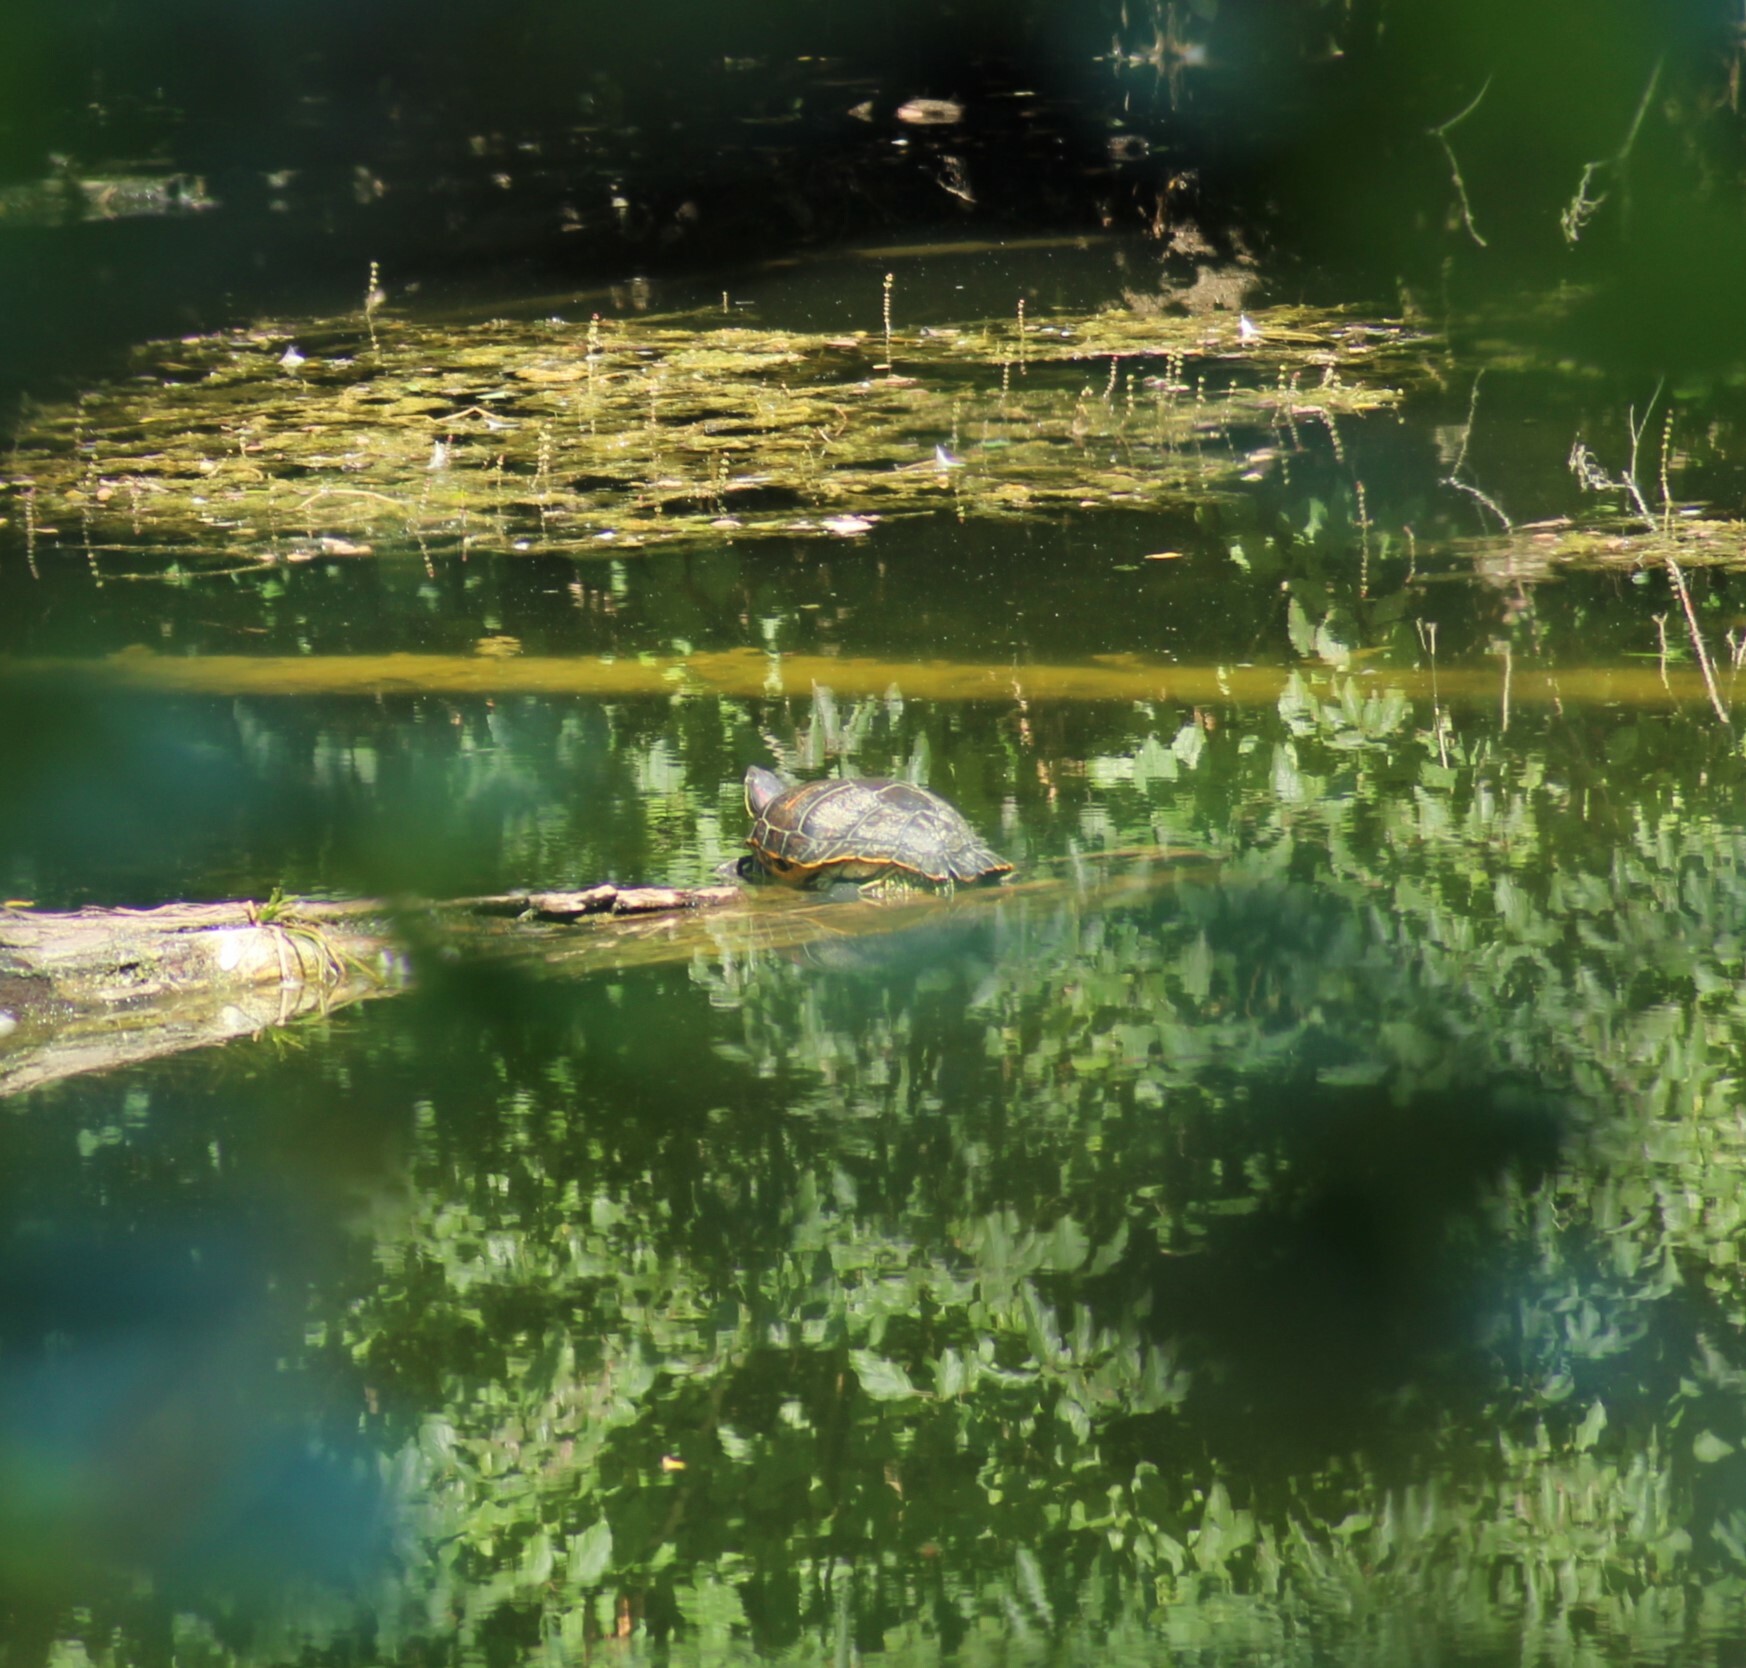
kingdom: Animalia
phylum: Chordata
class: Testudines
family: Emydidae
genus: Trachemys
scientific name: Trachemys scripta
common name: Slider
